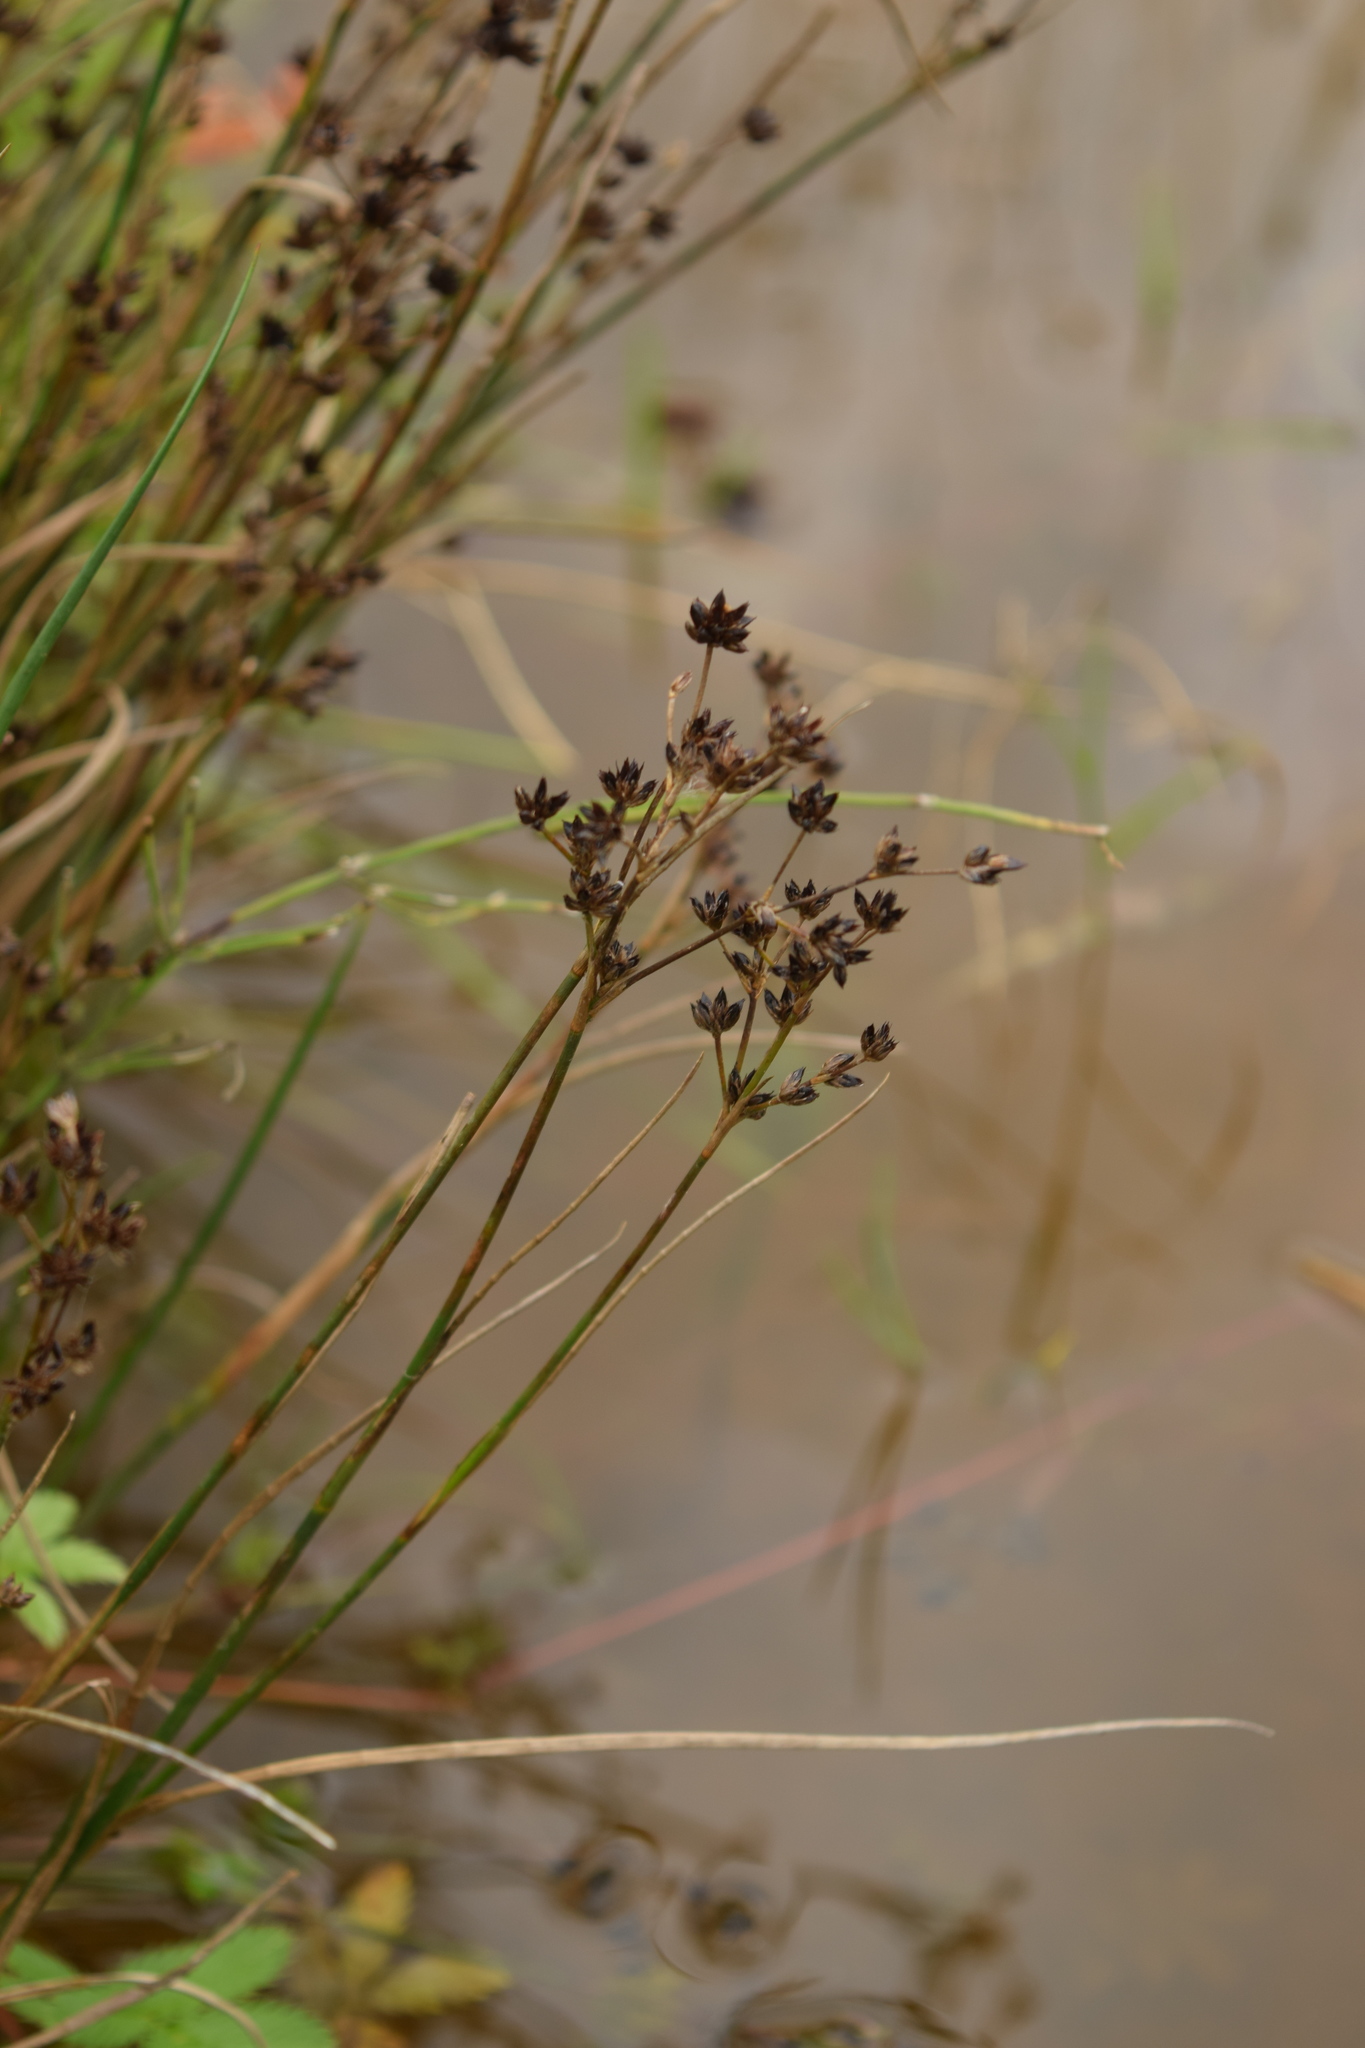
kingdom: Plantae
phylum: Tracheophyta
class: Liliopsida
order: Poales
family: Juncaceae
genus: Juncus
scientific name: Juncus articulatus
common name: Jointed rush
